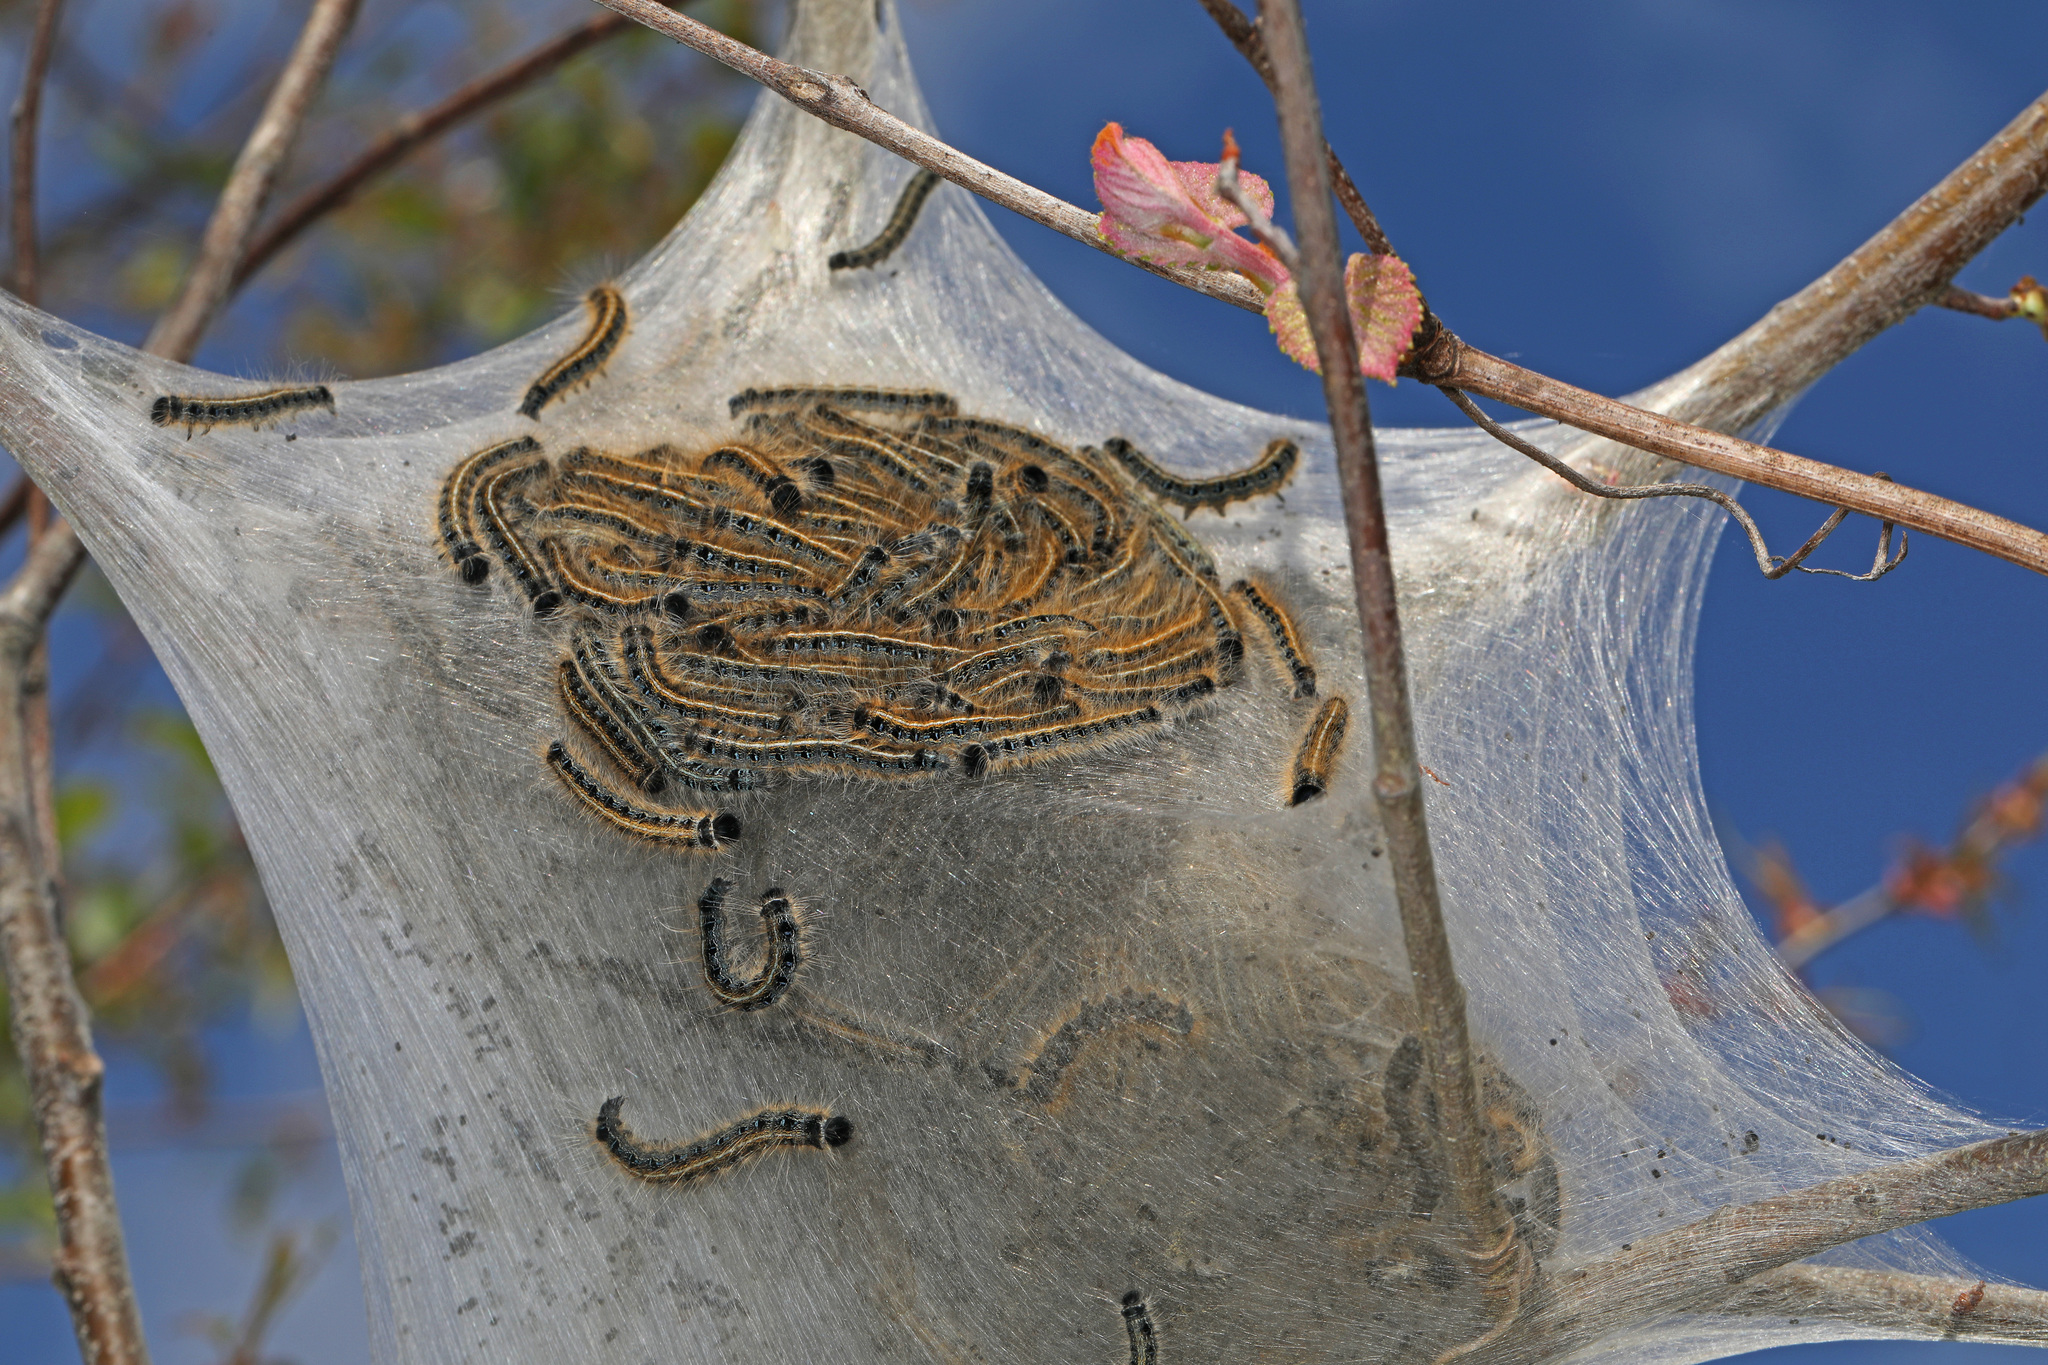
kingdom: Animalia
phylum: Arthropoda
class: Insecta
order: Lepidoptera
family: Lasiocampidae
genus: Malacosoma
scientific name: Malacosoma americana
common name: Eastern tent caterpillar moth
